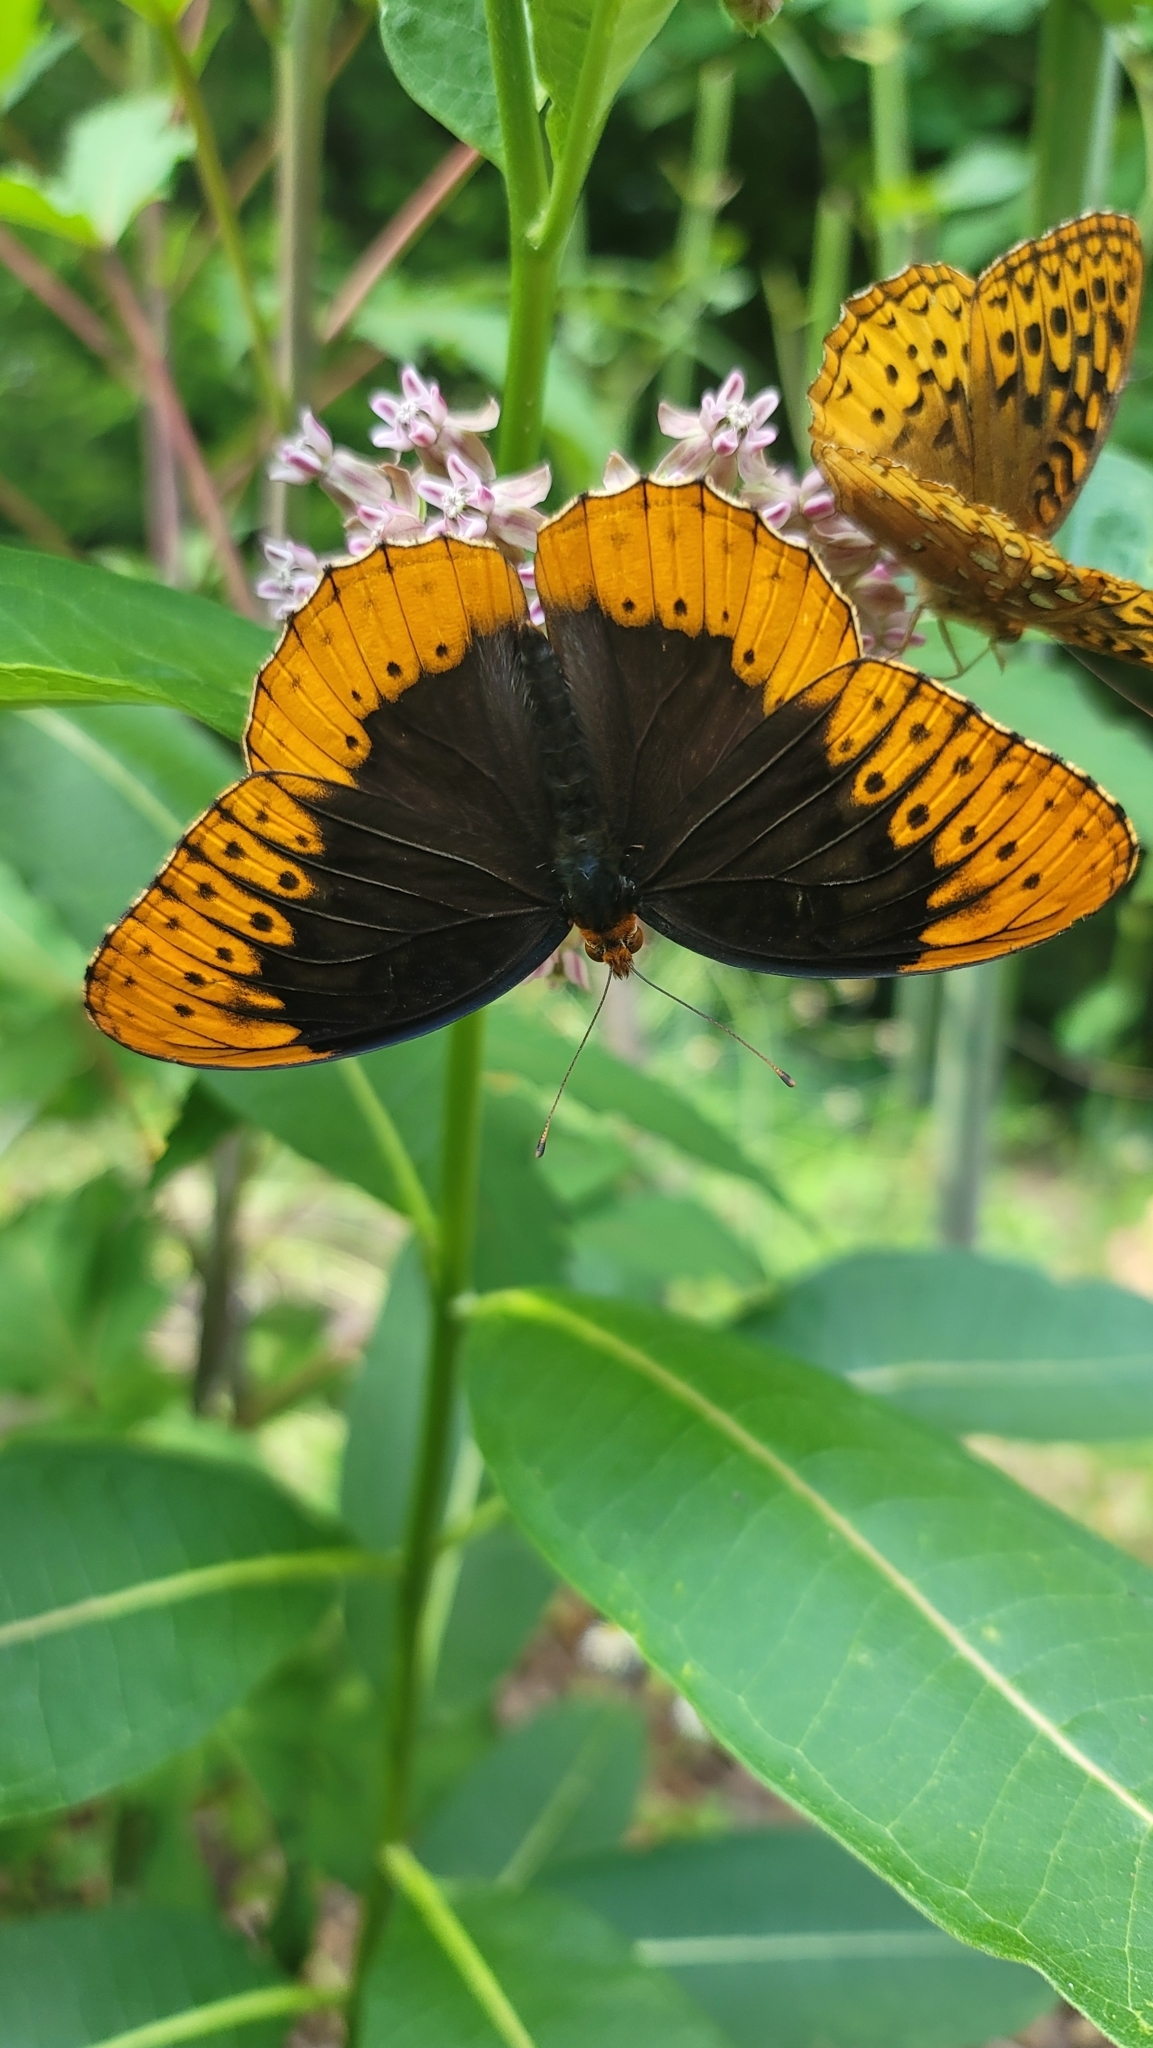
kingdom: Animalia
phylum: Arthropoda
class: Insecta
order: Lepidoptera
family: Nymphalidae
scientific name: Nymphalidae
